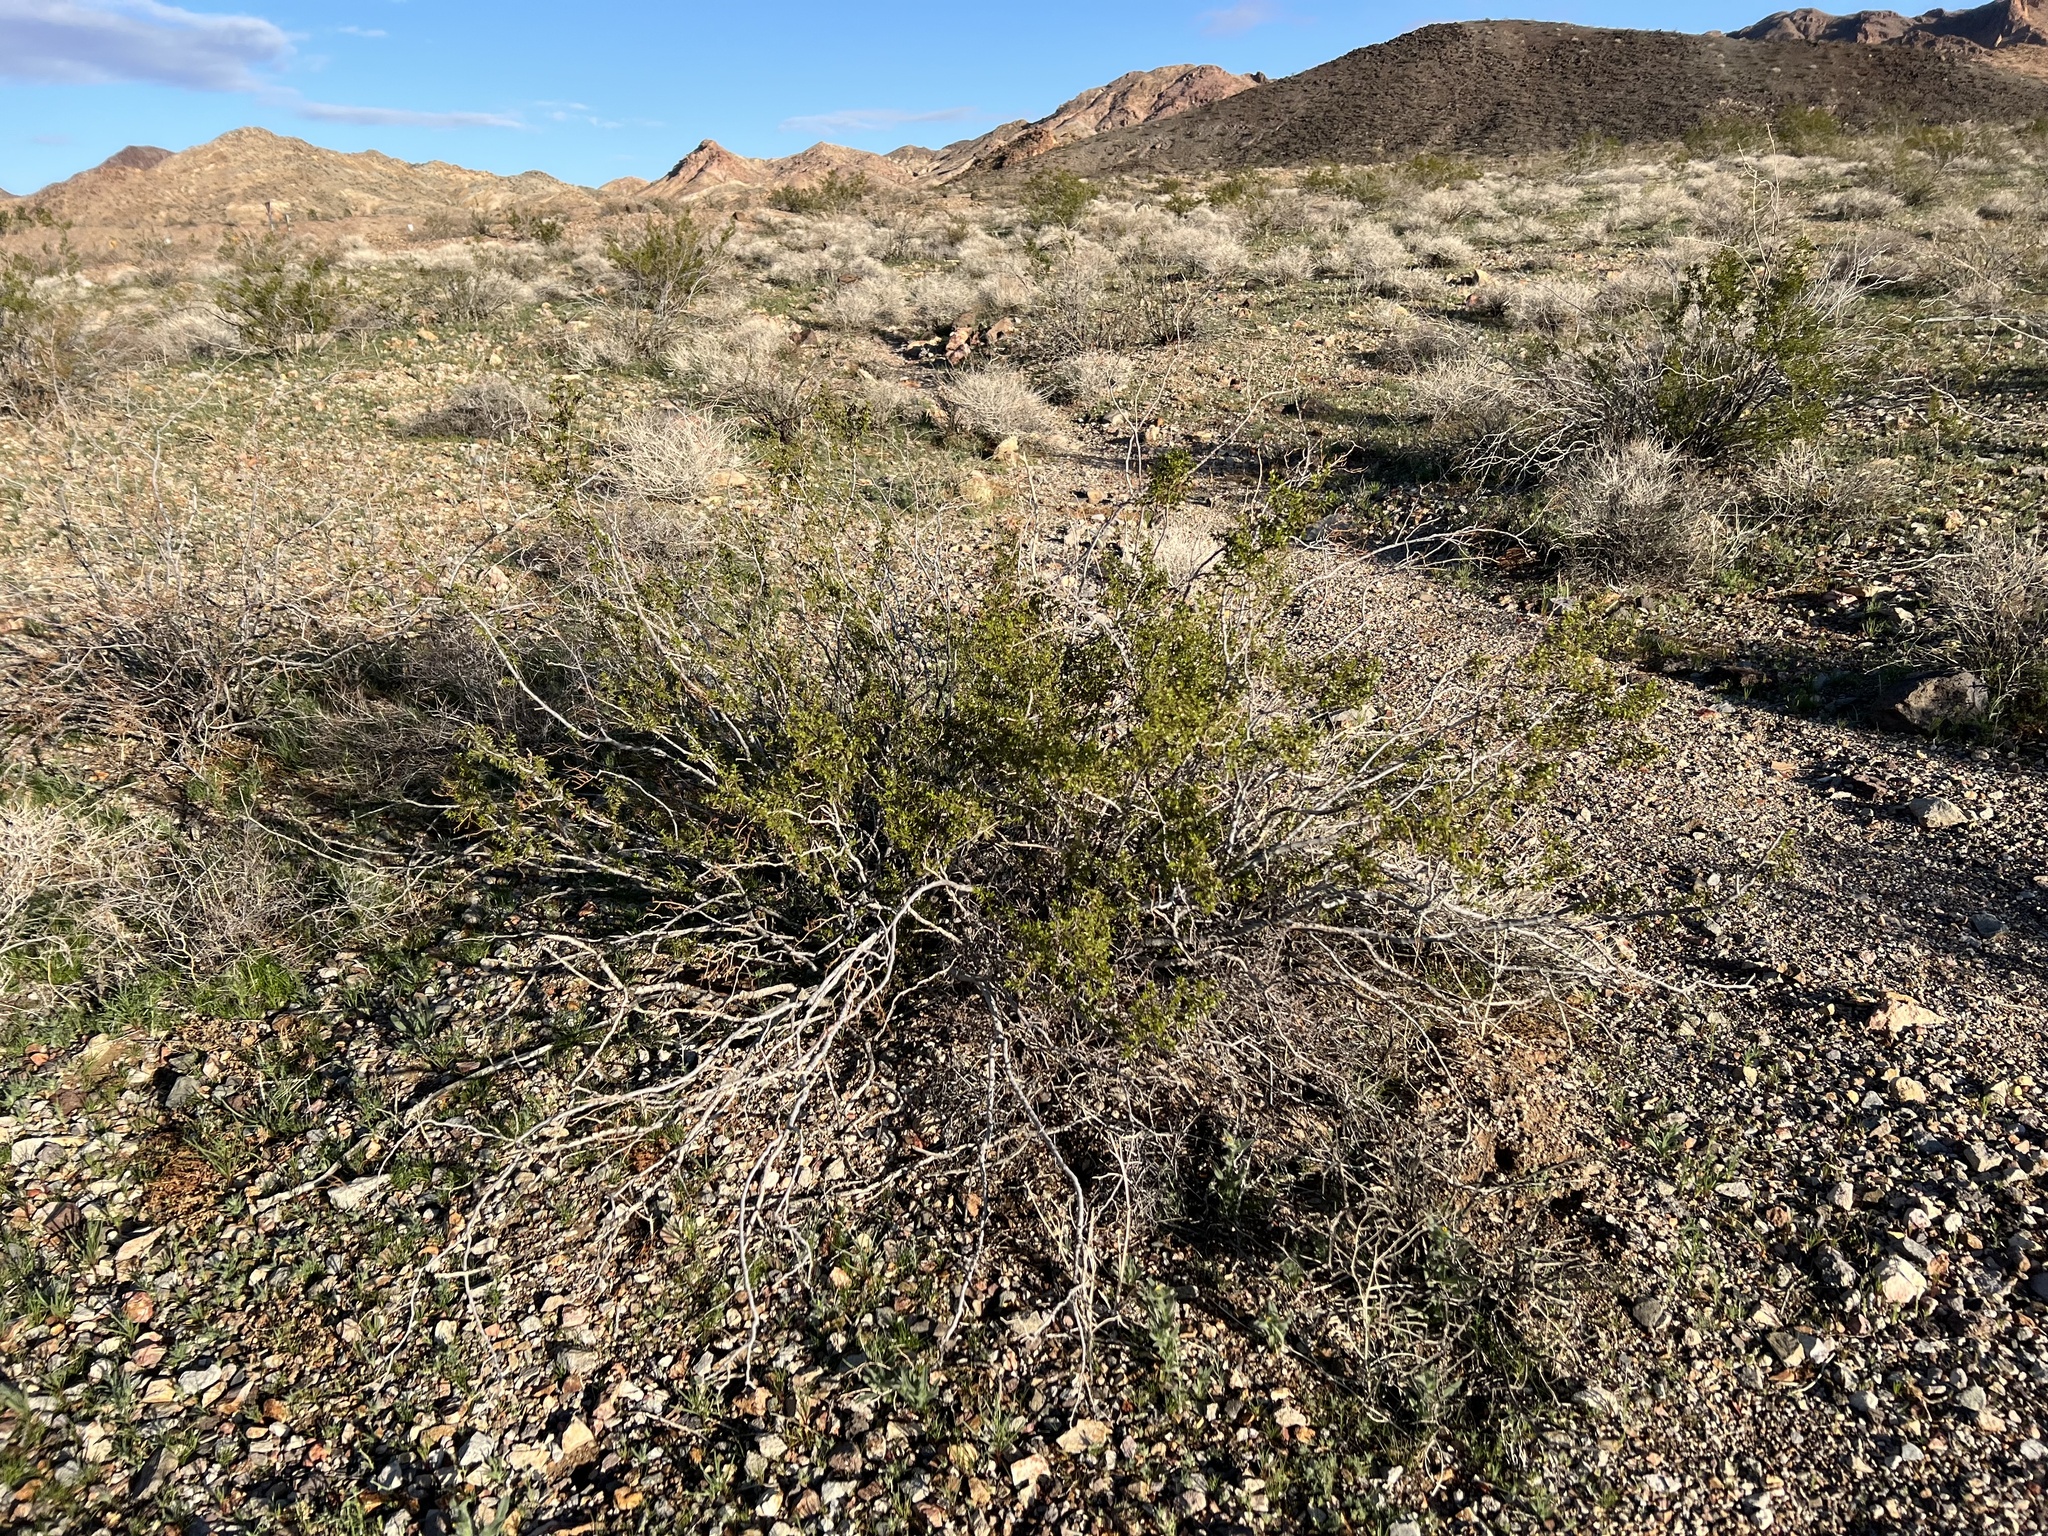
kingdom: Plantae
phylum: Tracheophyta
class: Magnoliopsida
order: Zygophyllales
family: Zygophyllaceae
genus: Larrea
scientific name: Larrea tridentata
